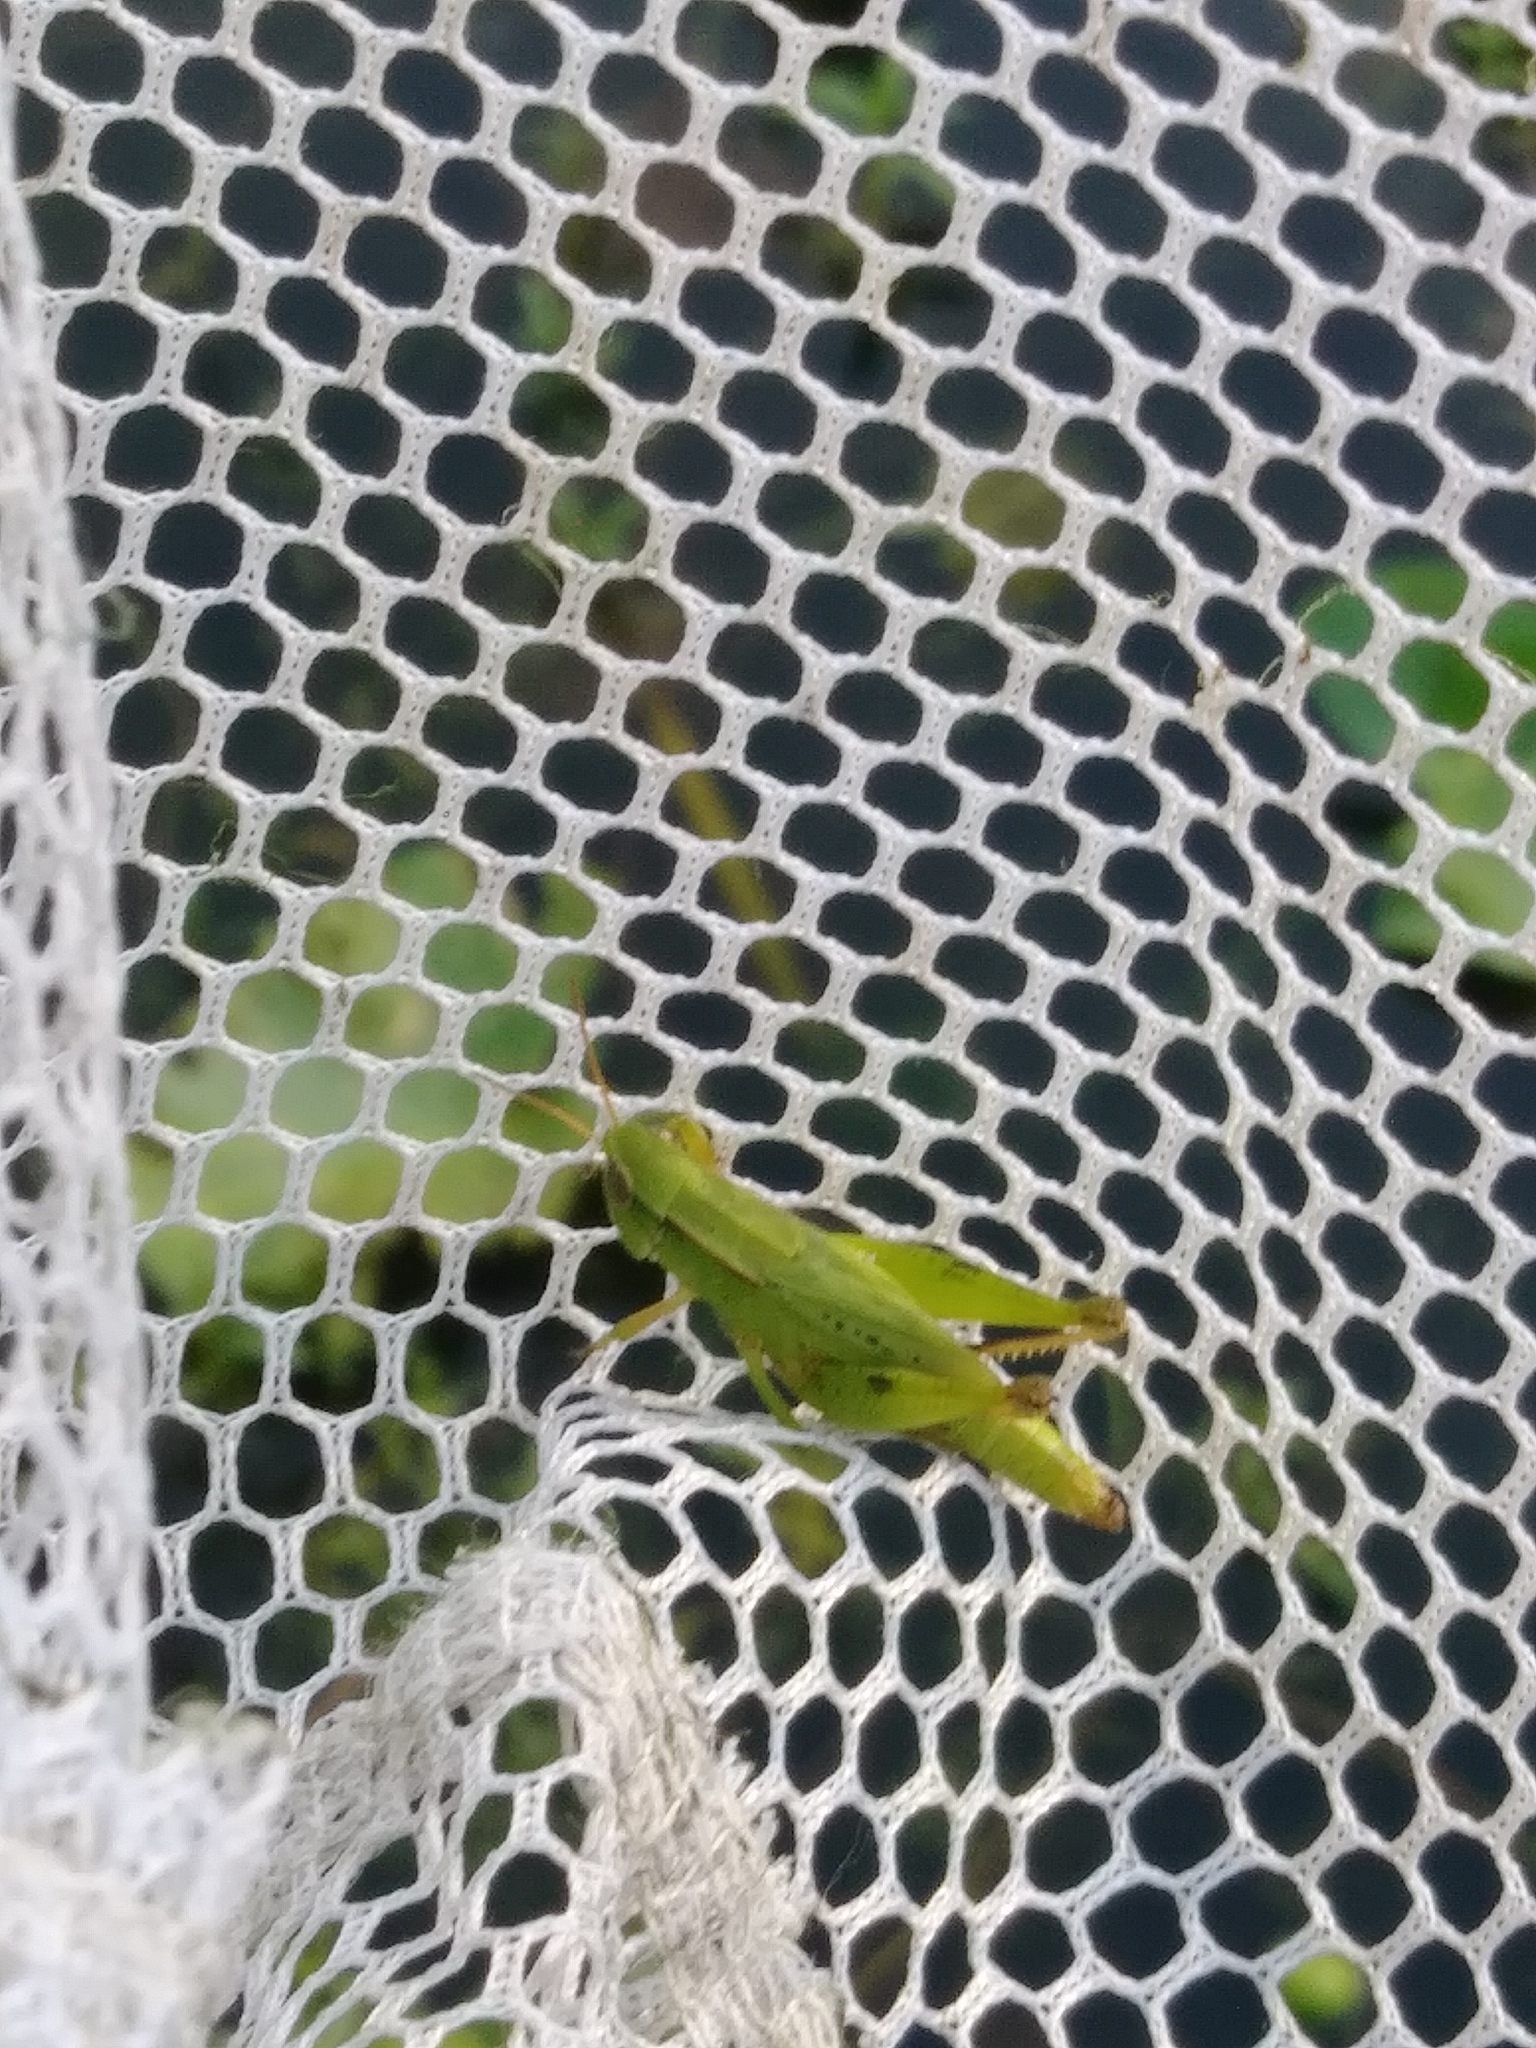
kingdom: Animalia
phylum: Arthropoda
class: Insecta
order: Orthoptera
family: Acrididae
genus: Dichromorpha
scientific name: Dichromorpha viridis
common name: Short-winged green grasshopper
